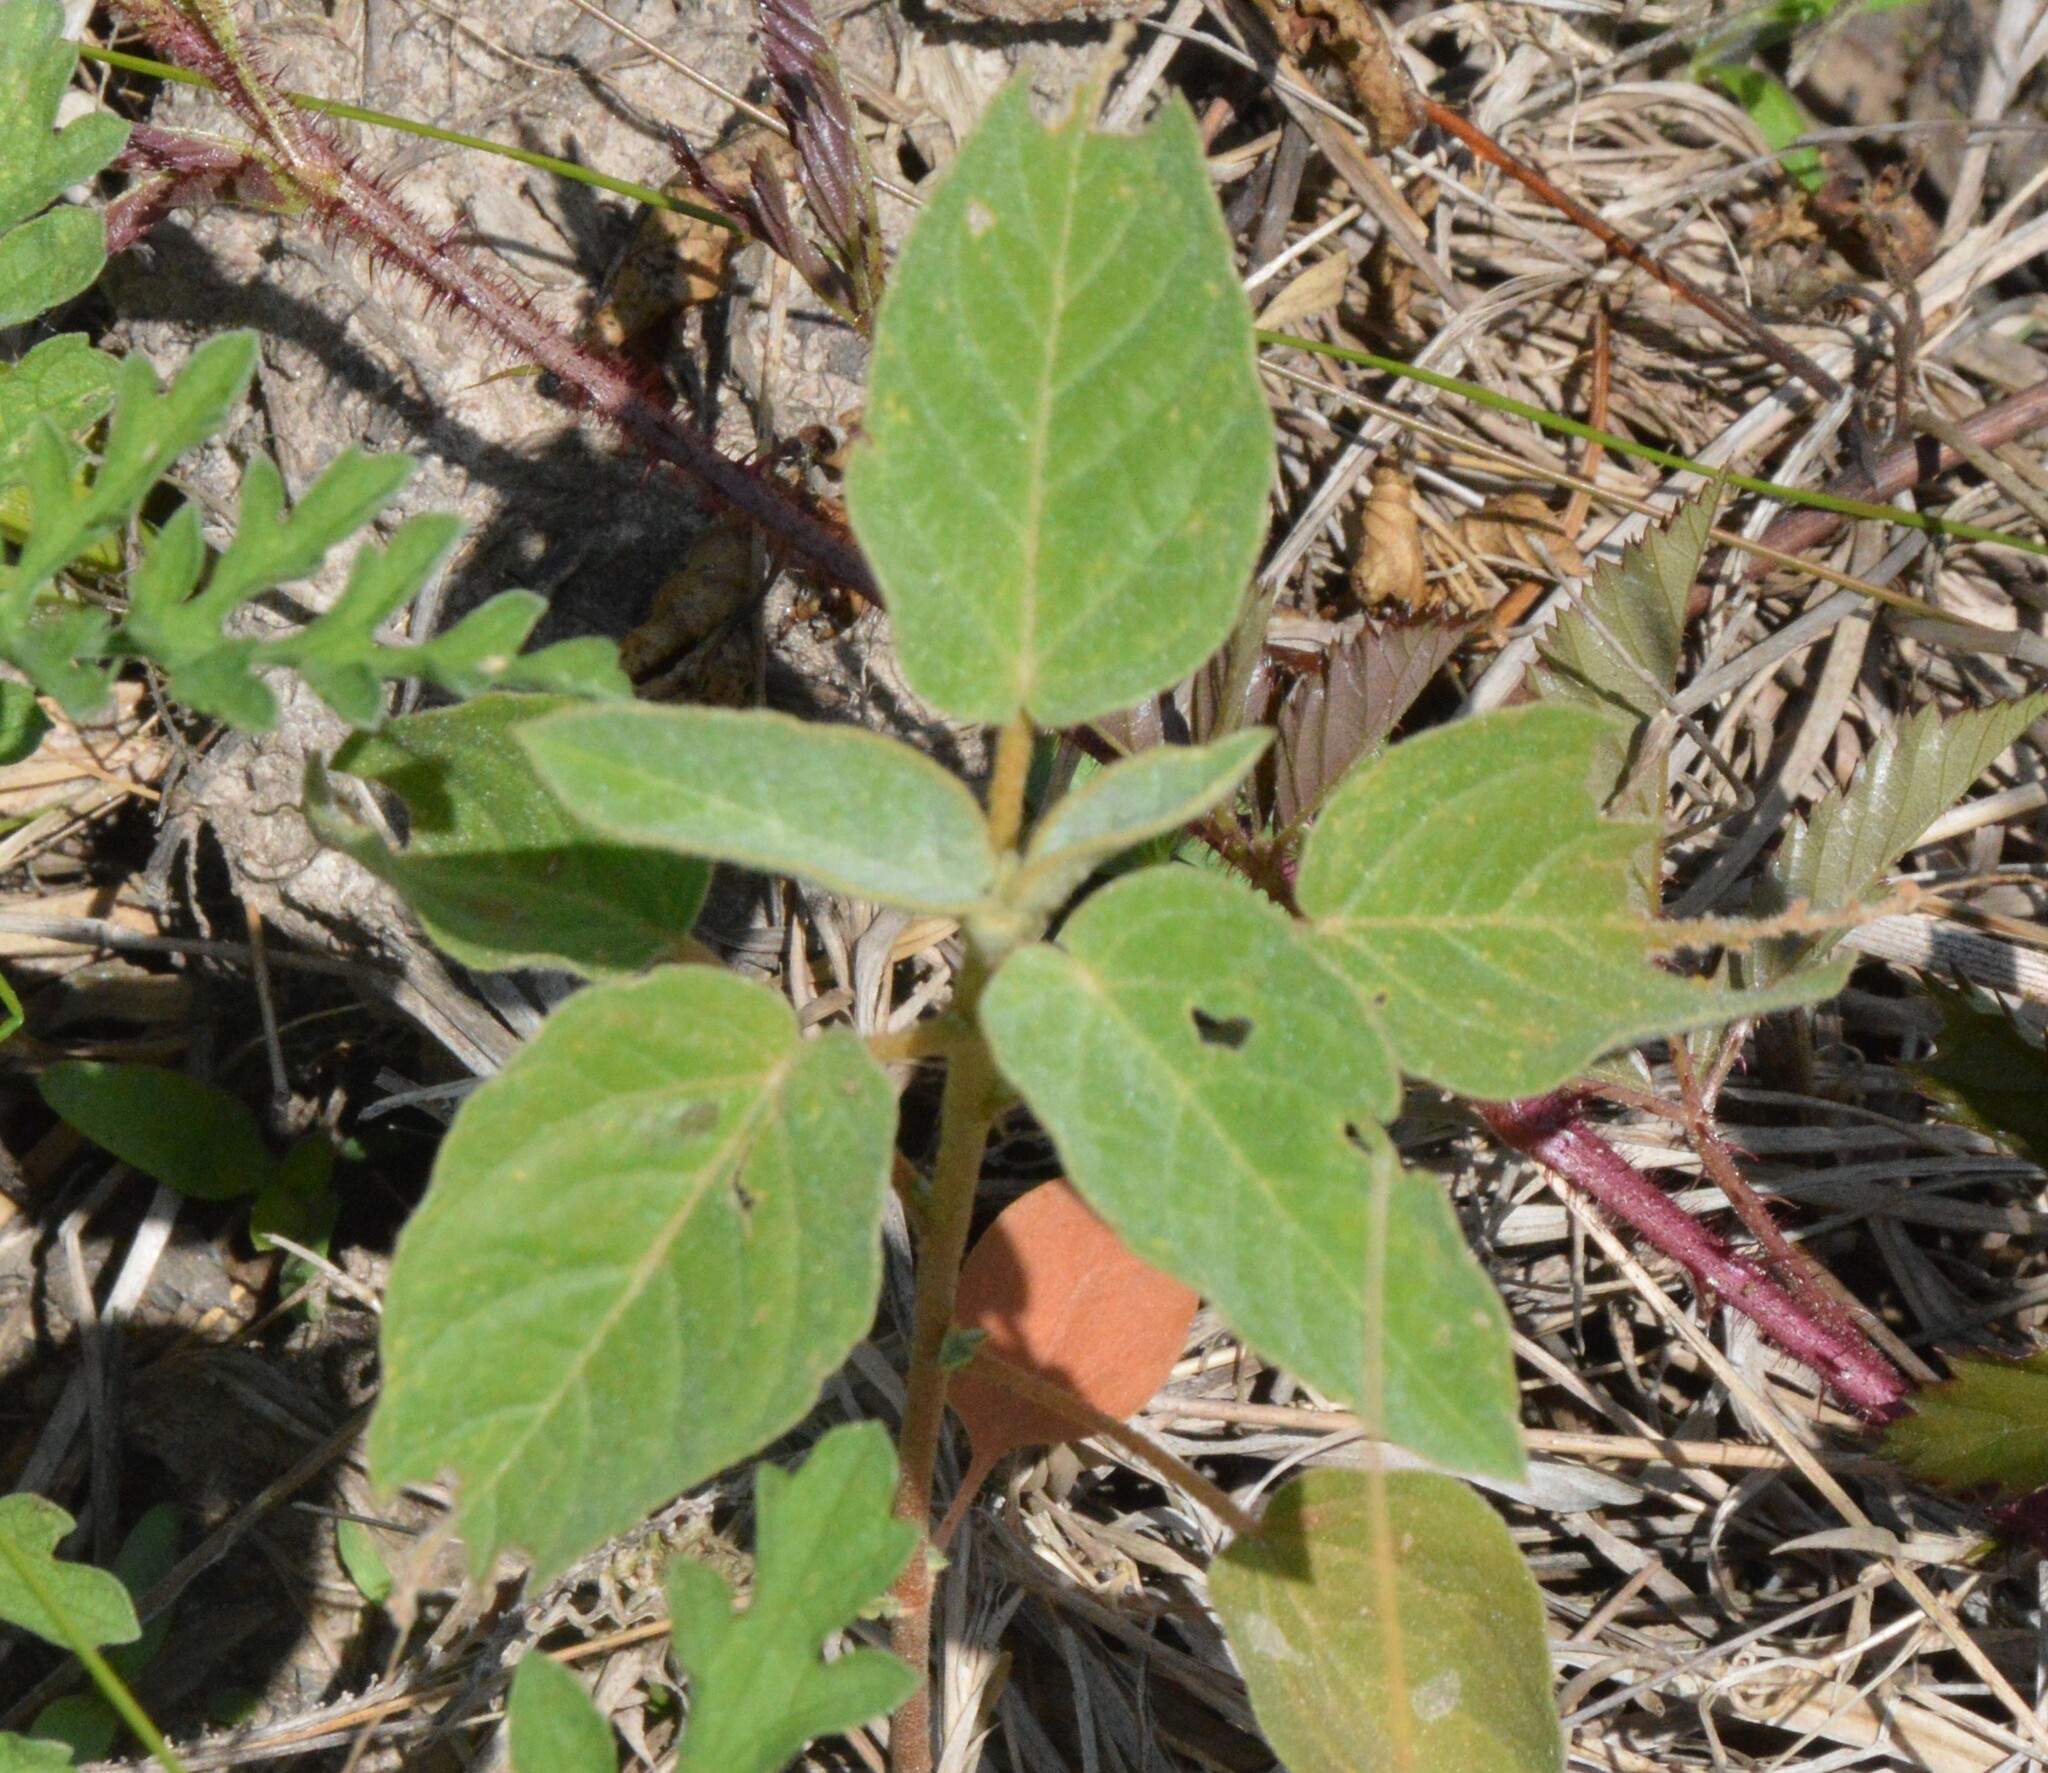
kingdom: Plantae
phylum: Tracheophyta
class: Magnoliopsida
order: Malpighiales
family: Euphorbiaceae
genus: Croton
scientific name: Croton lindheimeri
